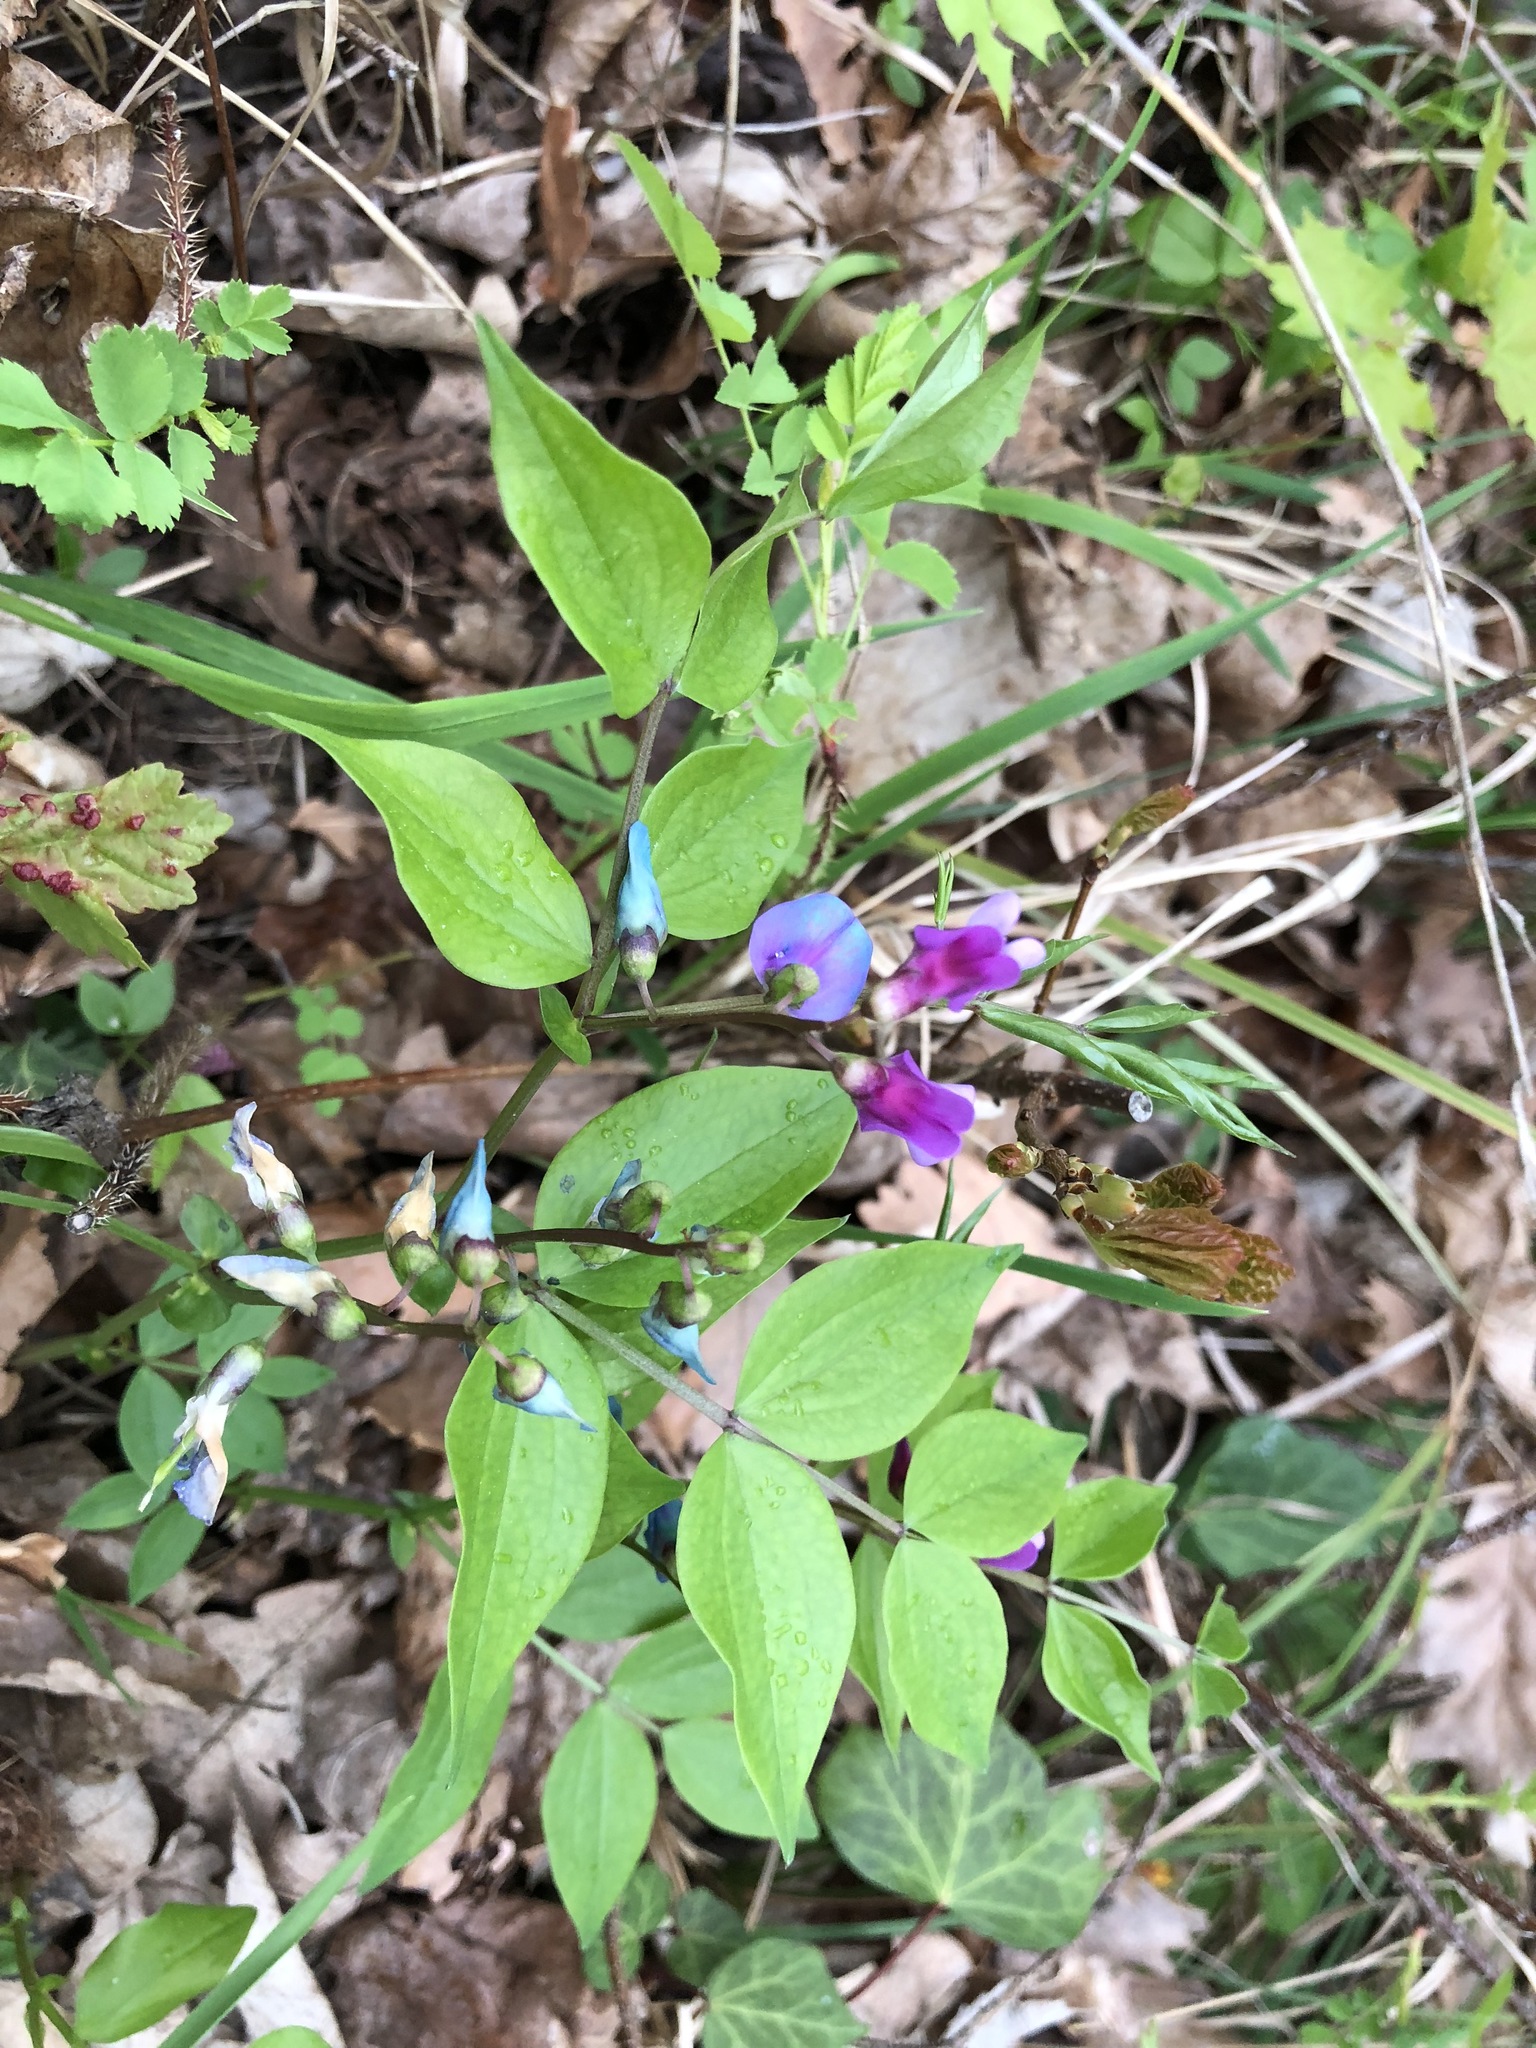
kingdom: Plantae
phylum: Tracheophyta
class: Magnoliopsida
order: Fabales
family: Fabaceae
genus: Lathyrus
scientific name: Lathyrus vernus
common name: Spring pea
